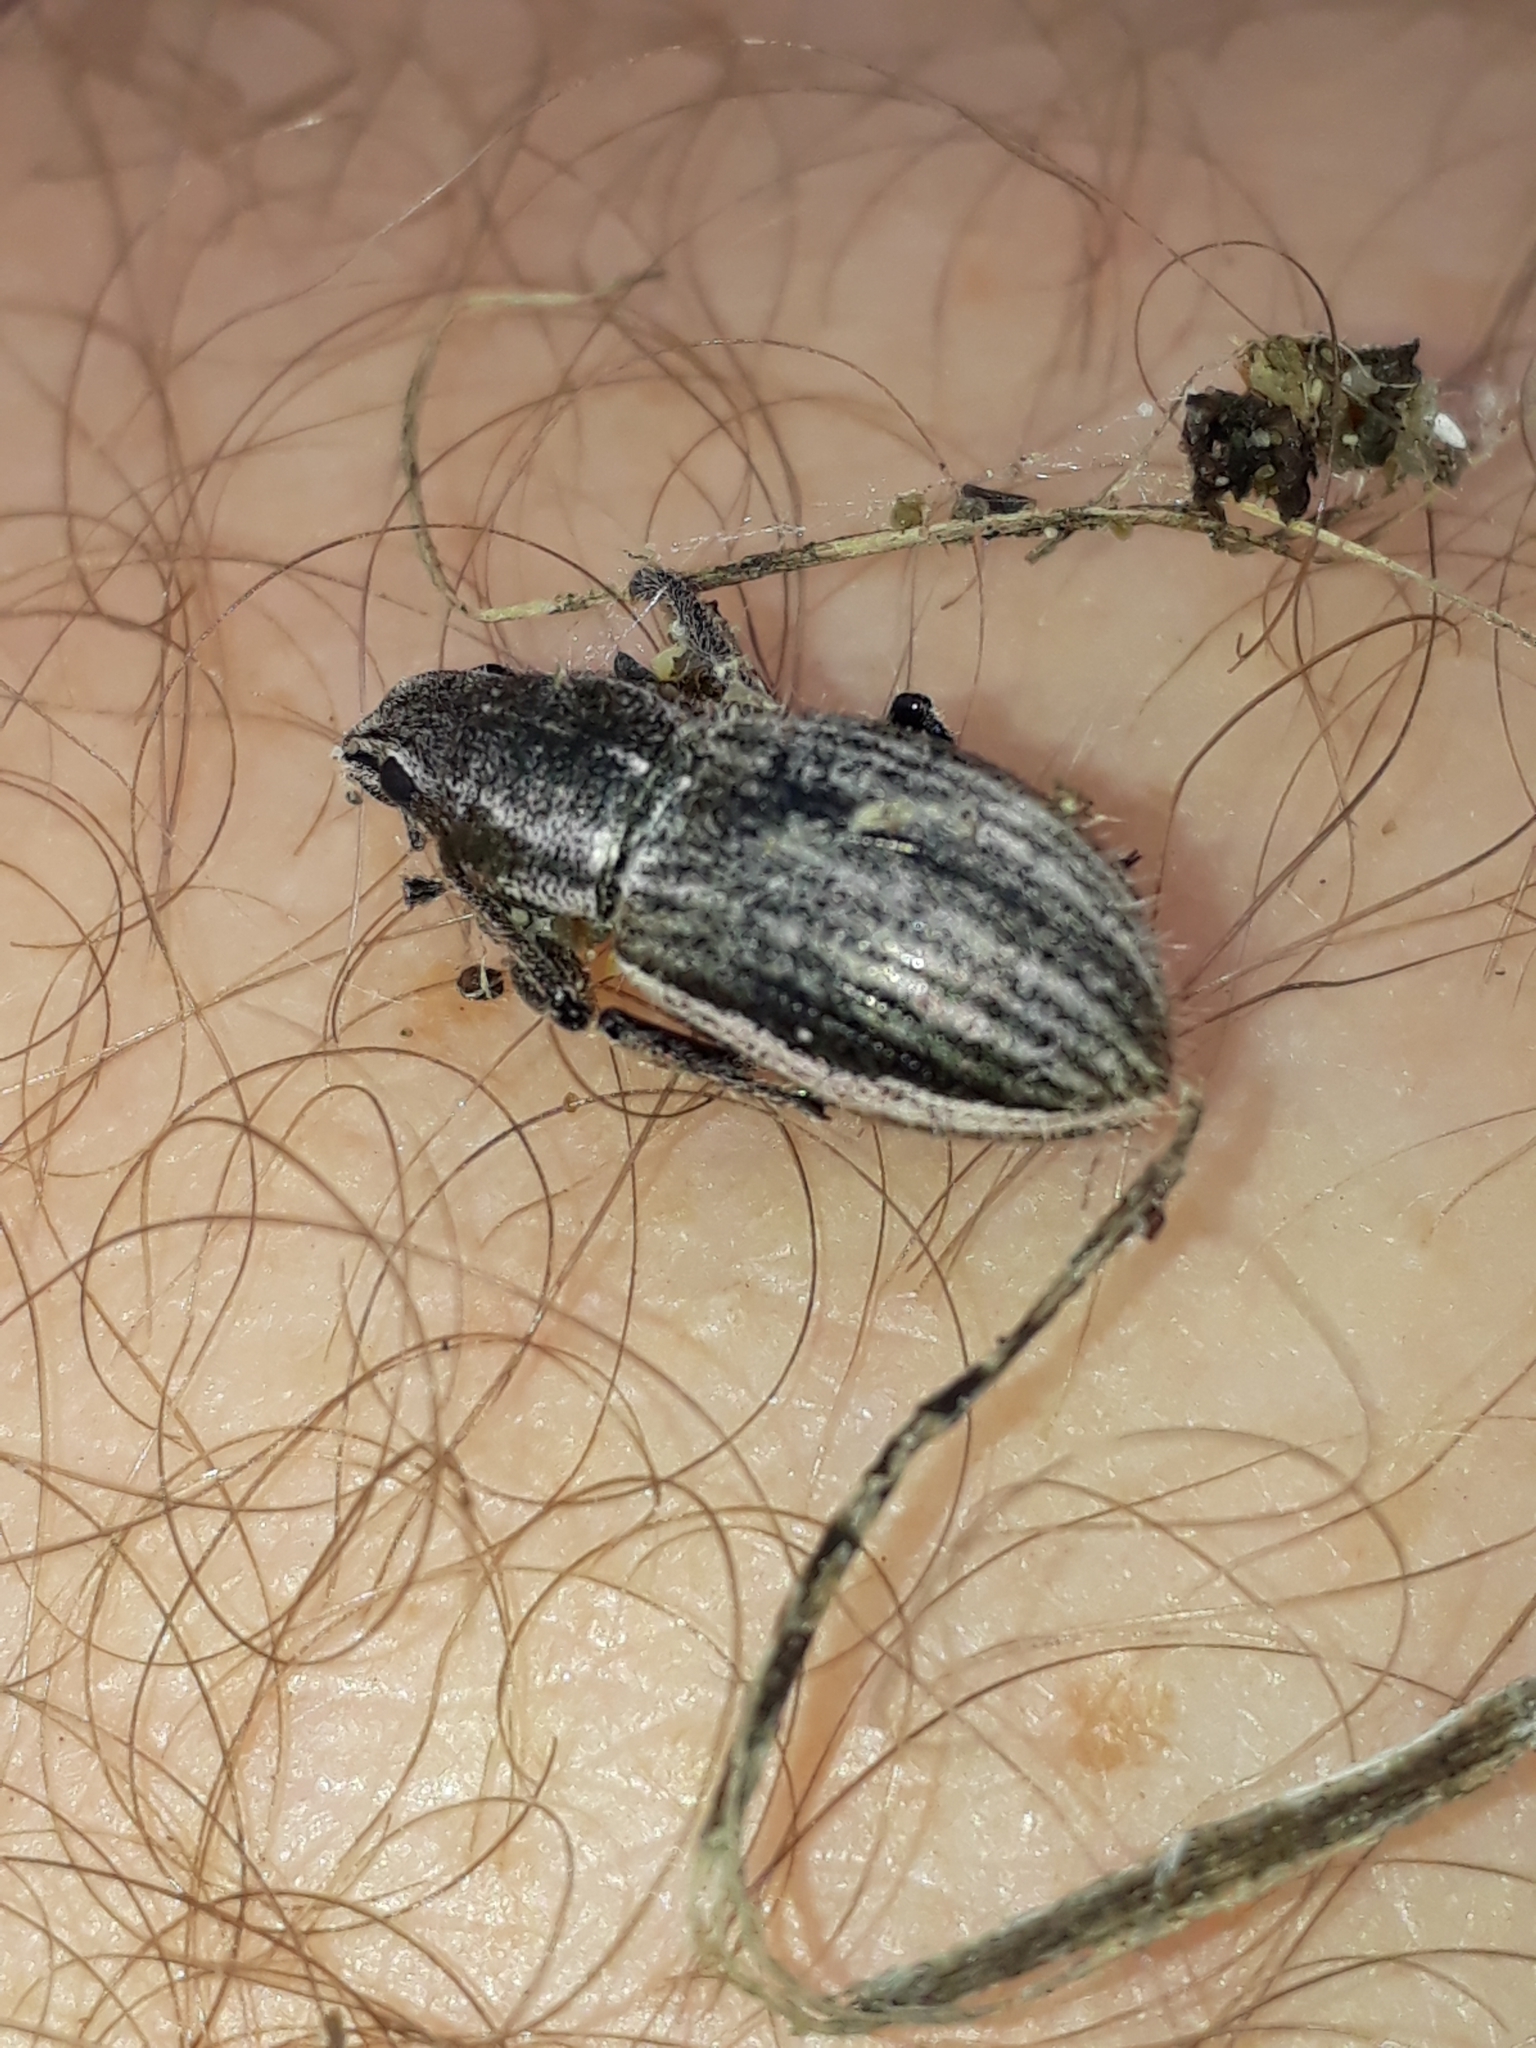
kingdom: Animalia
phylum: Arthropoda
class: Insecta
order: Coleoptera
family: Curculionidae
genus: Naupactus
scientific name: Naupactus leucoloma
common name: Whitefringed beetle
